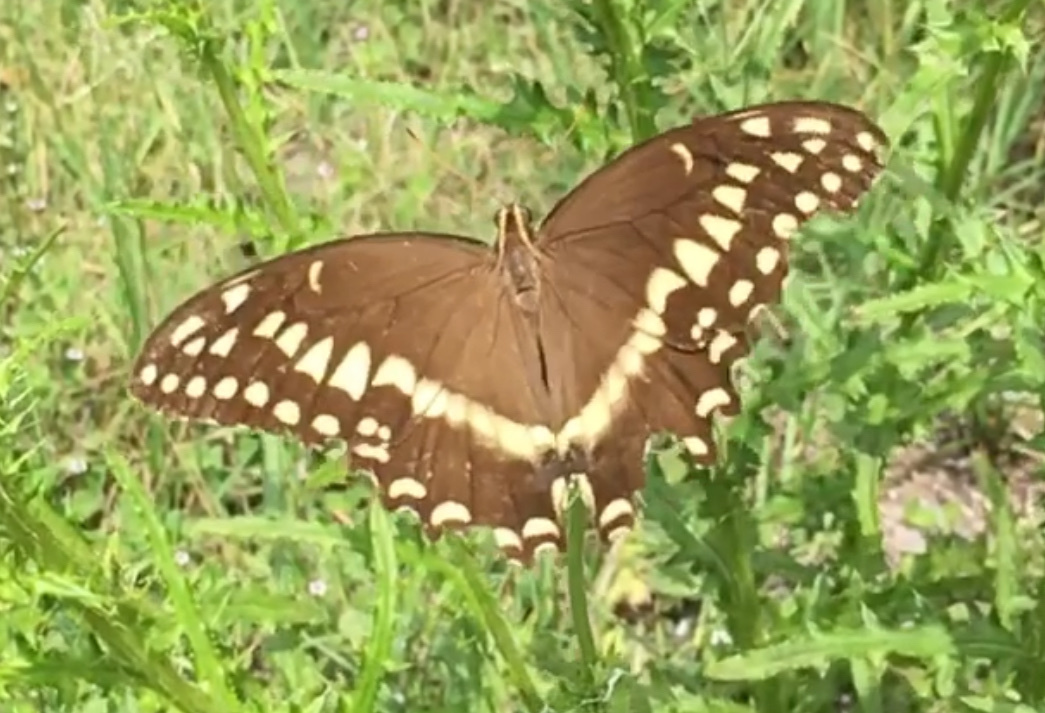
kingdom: Animalia
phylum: Arthropoda
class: Insecta
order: Lepidoptera
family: Papilionidae
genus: Papilio
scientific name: Papilio palamedes
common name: Palamedes swallowtail
